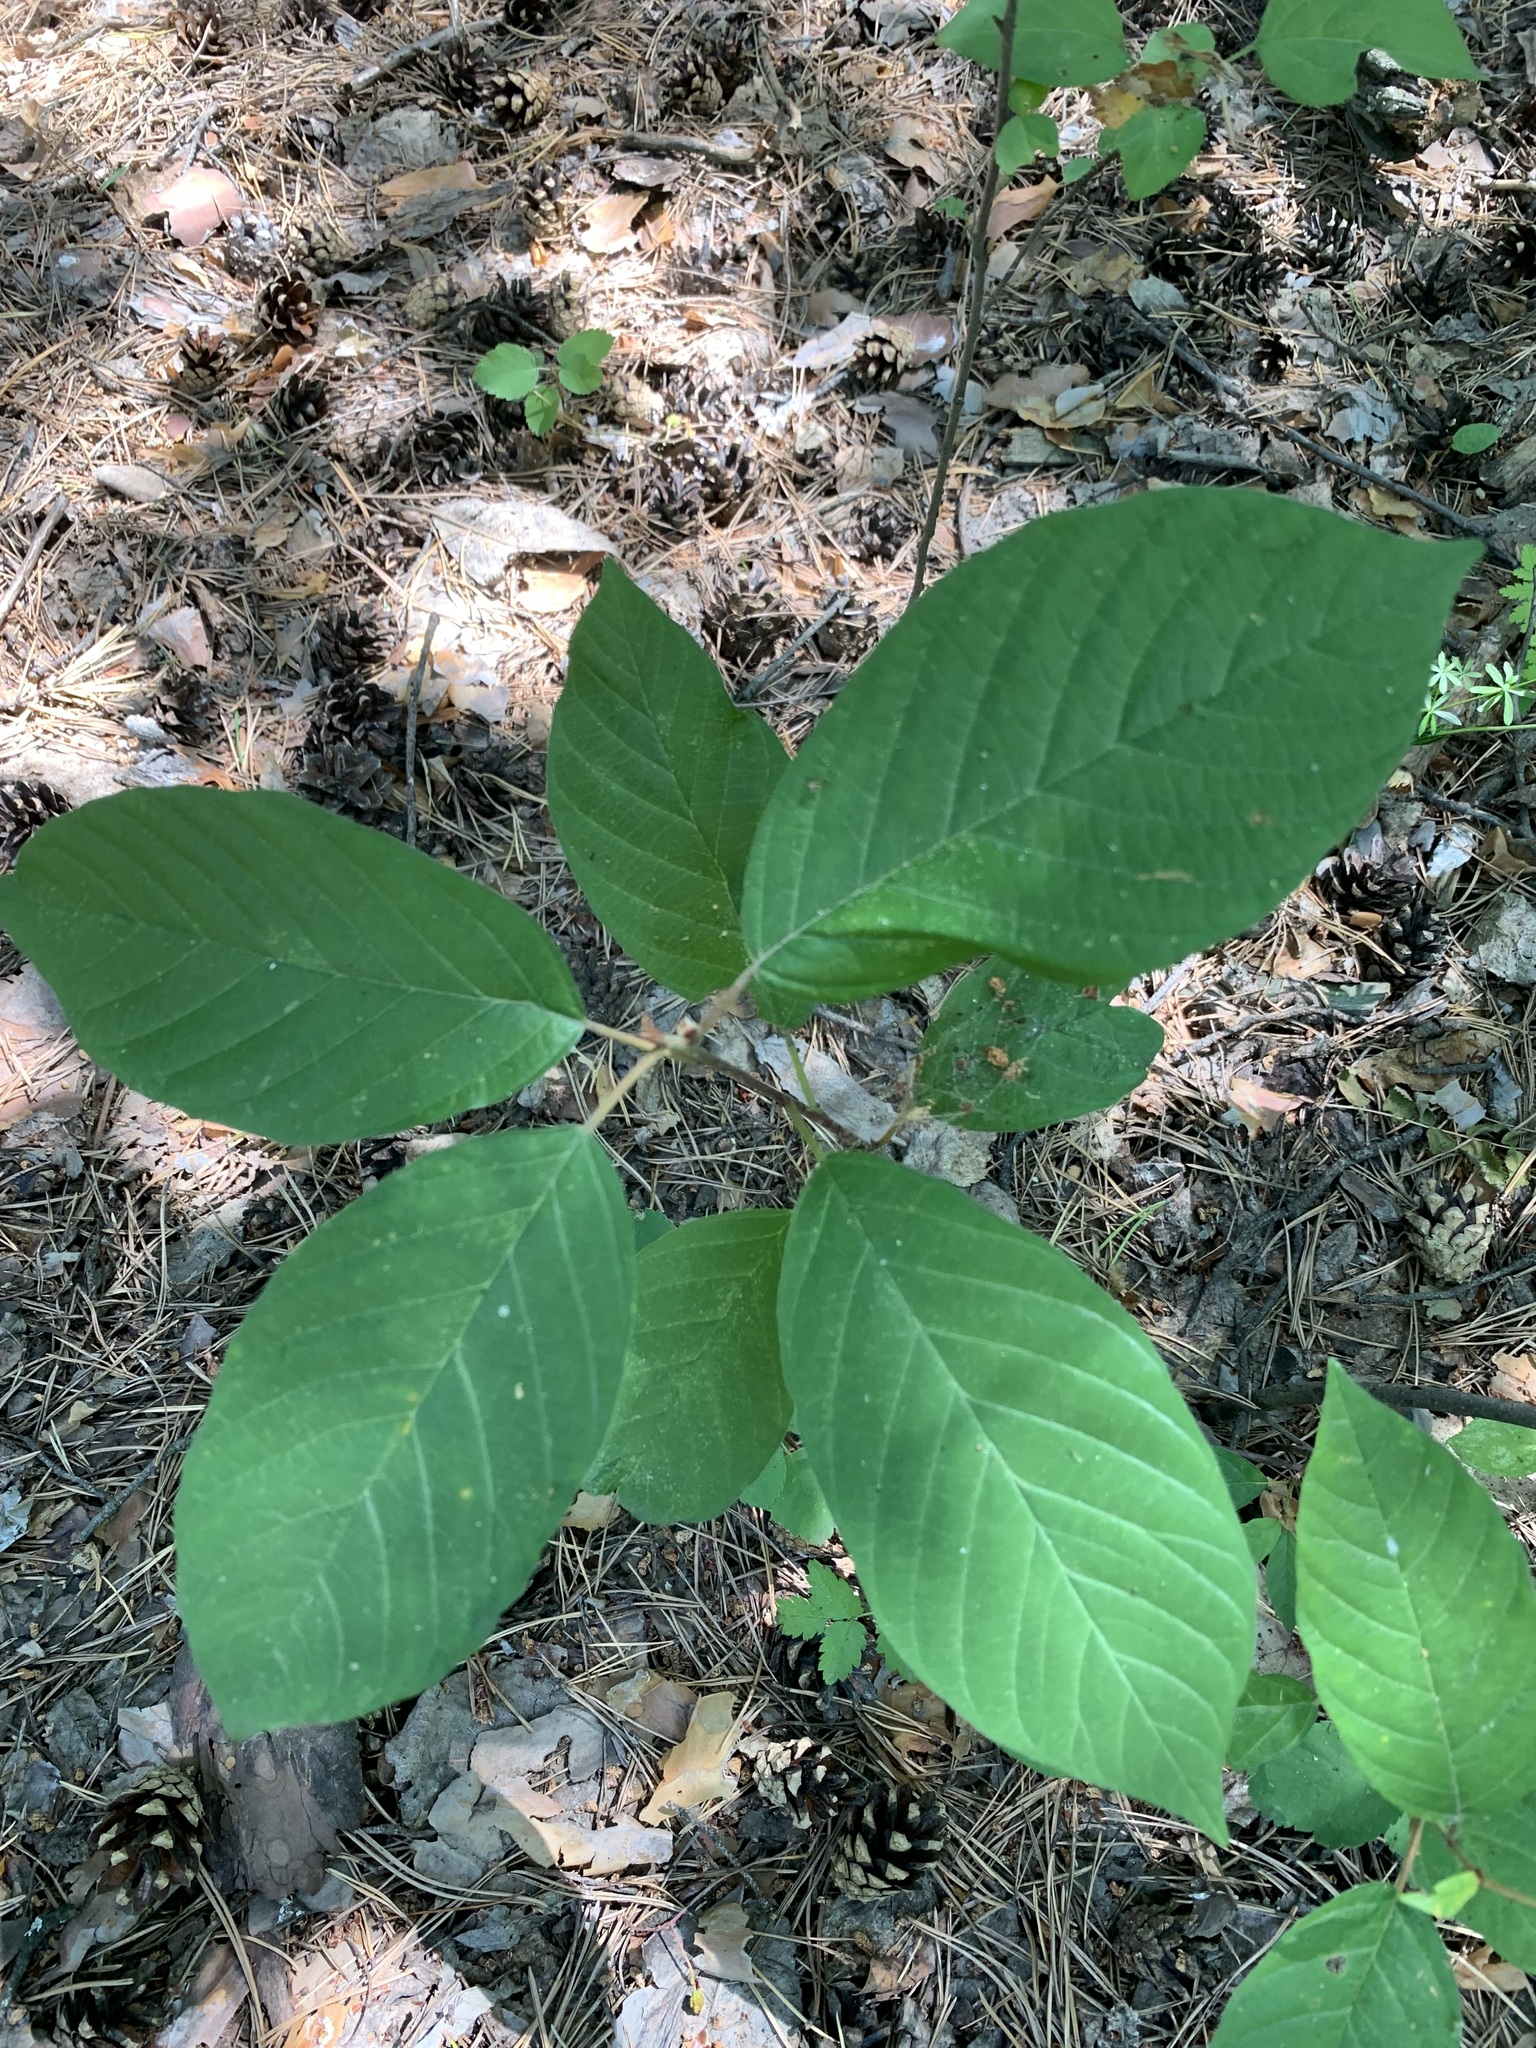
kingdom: Plantae
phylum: Tracheophyta
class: Magnoliopsida
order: Rosales
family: Rhamnaceae
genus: Frangula
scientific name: Frangula alnus
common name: Alder buckthorn
